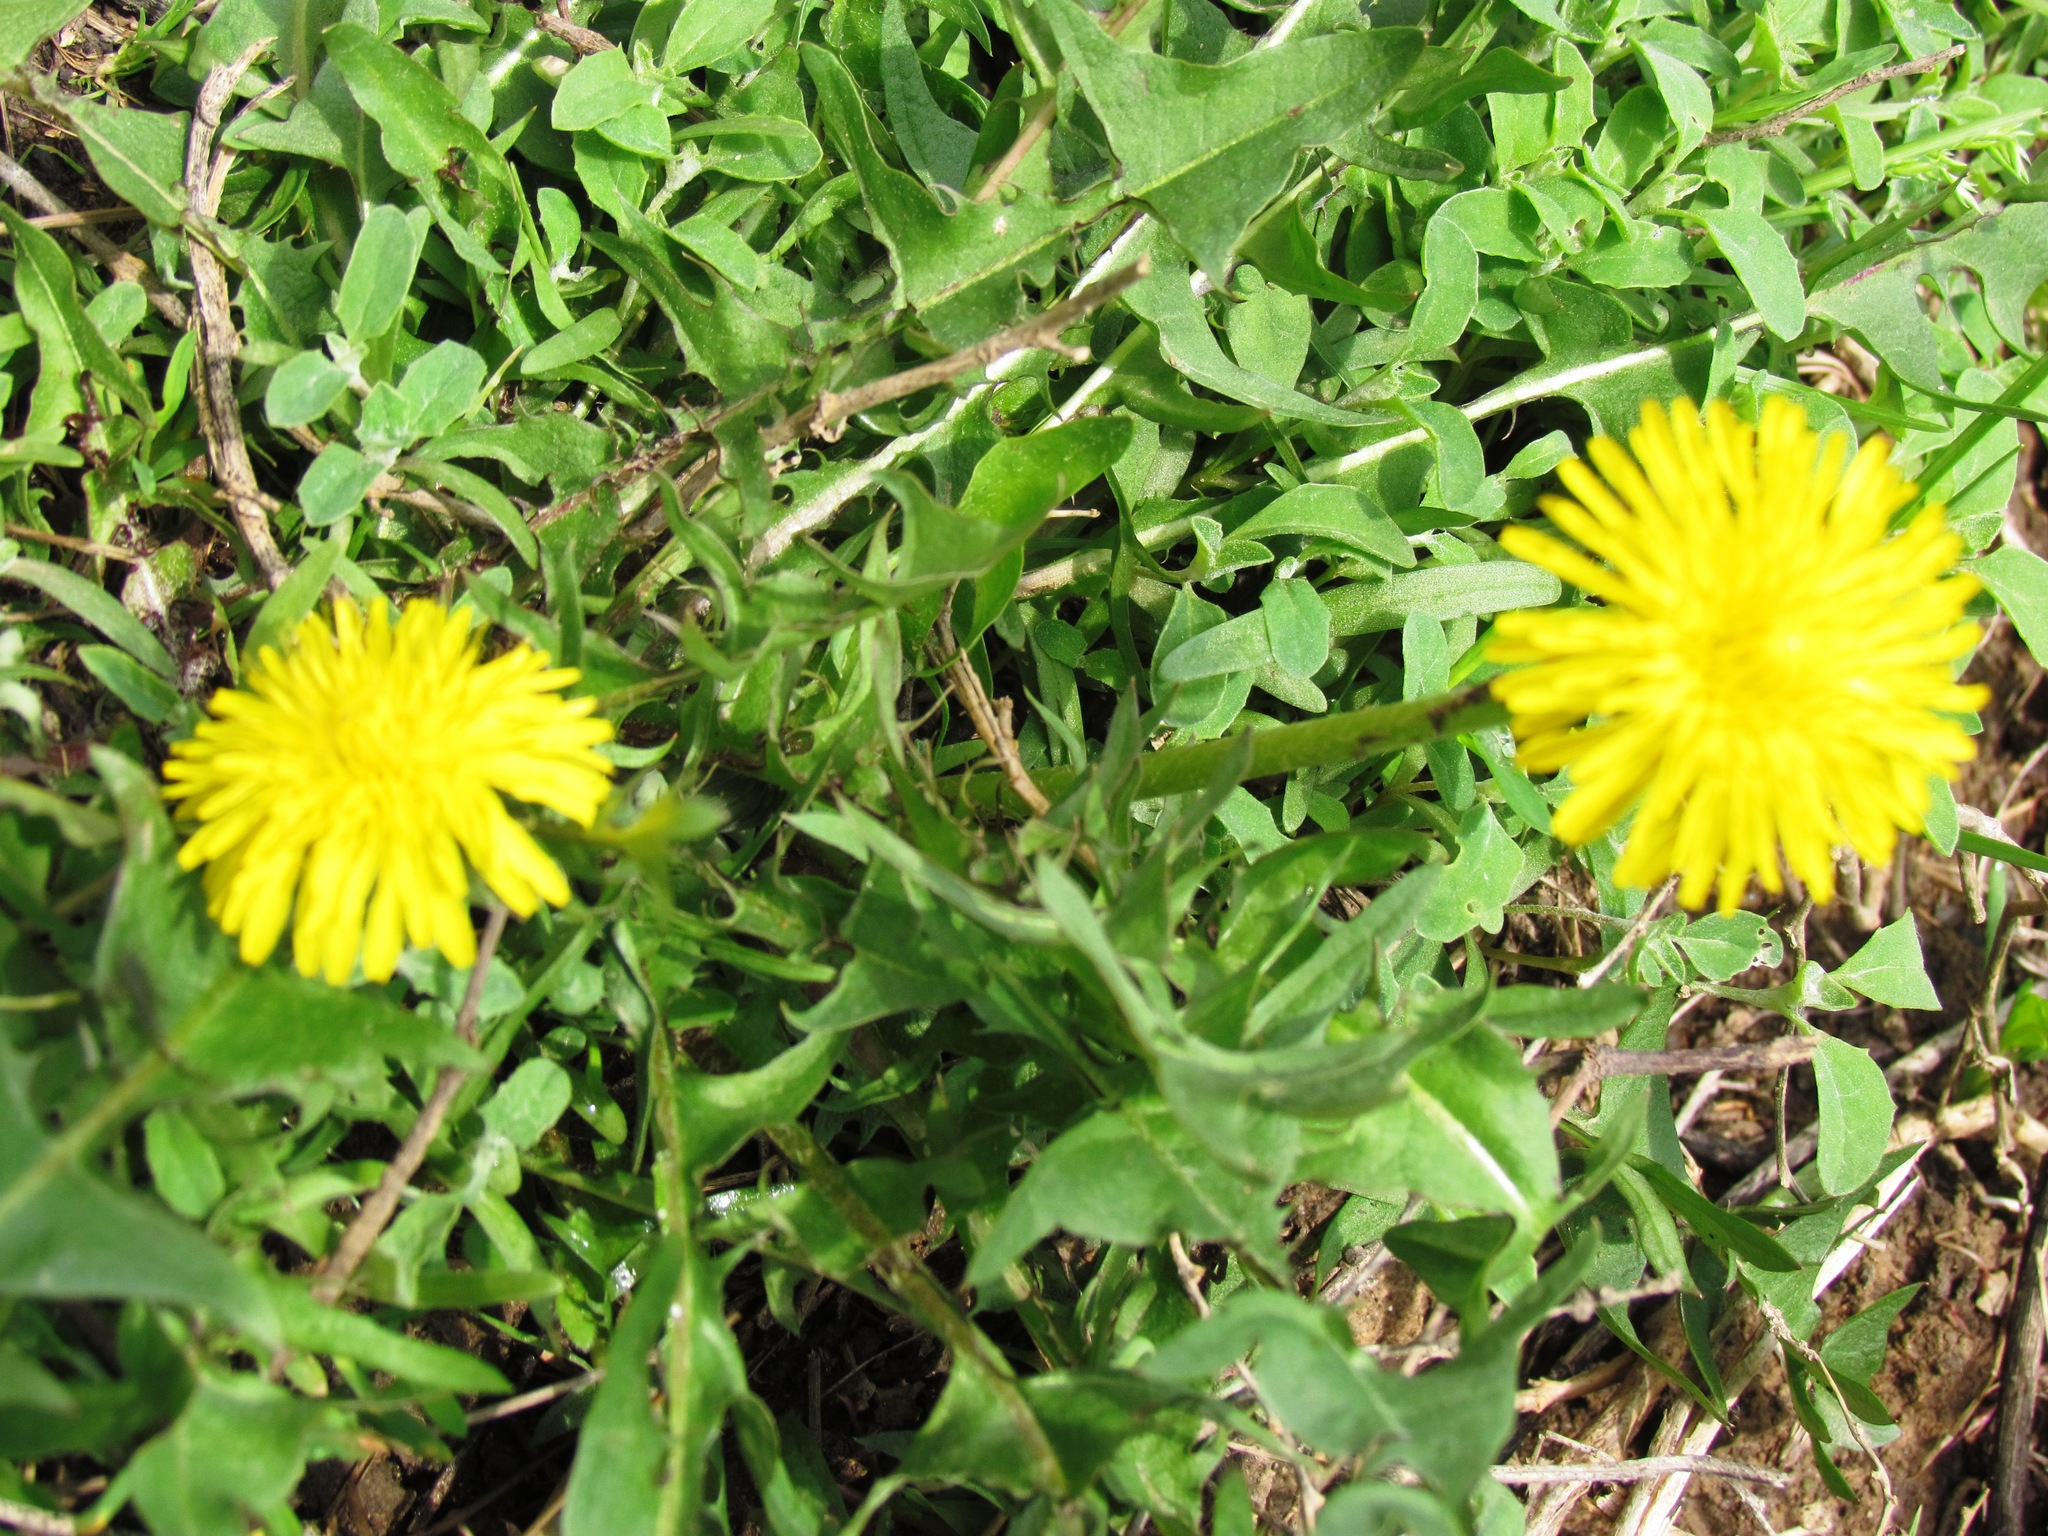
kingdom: Plantae
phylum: Tracheophyta
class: Magnoliopsida
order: Asterales
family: Asteraceae
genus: Taraxacum
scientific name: Taraxacum officinale
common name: Common dandelion
